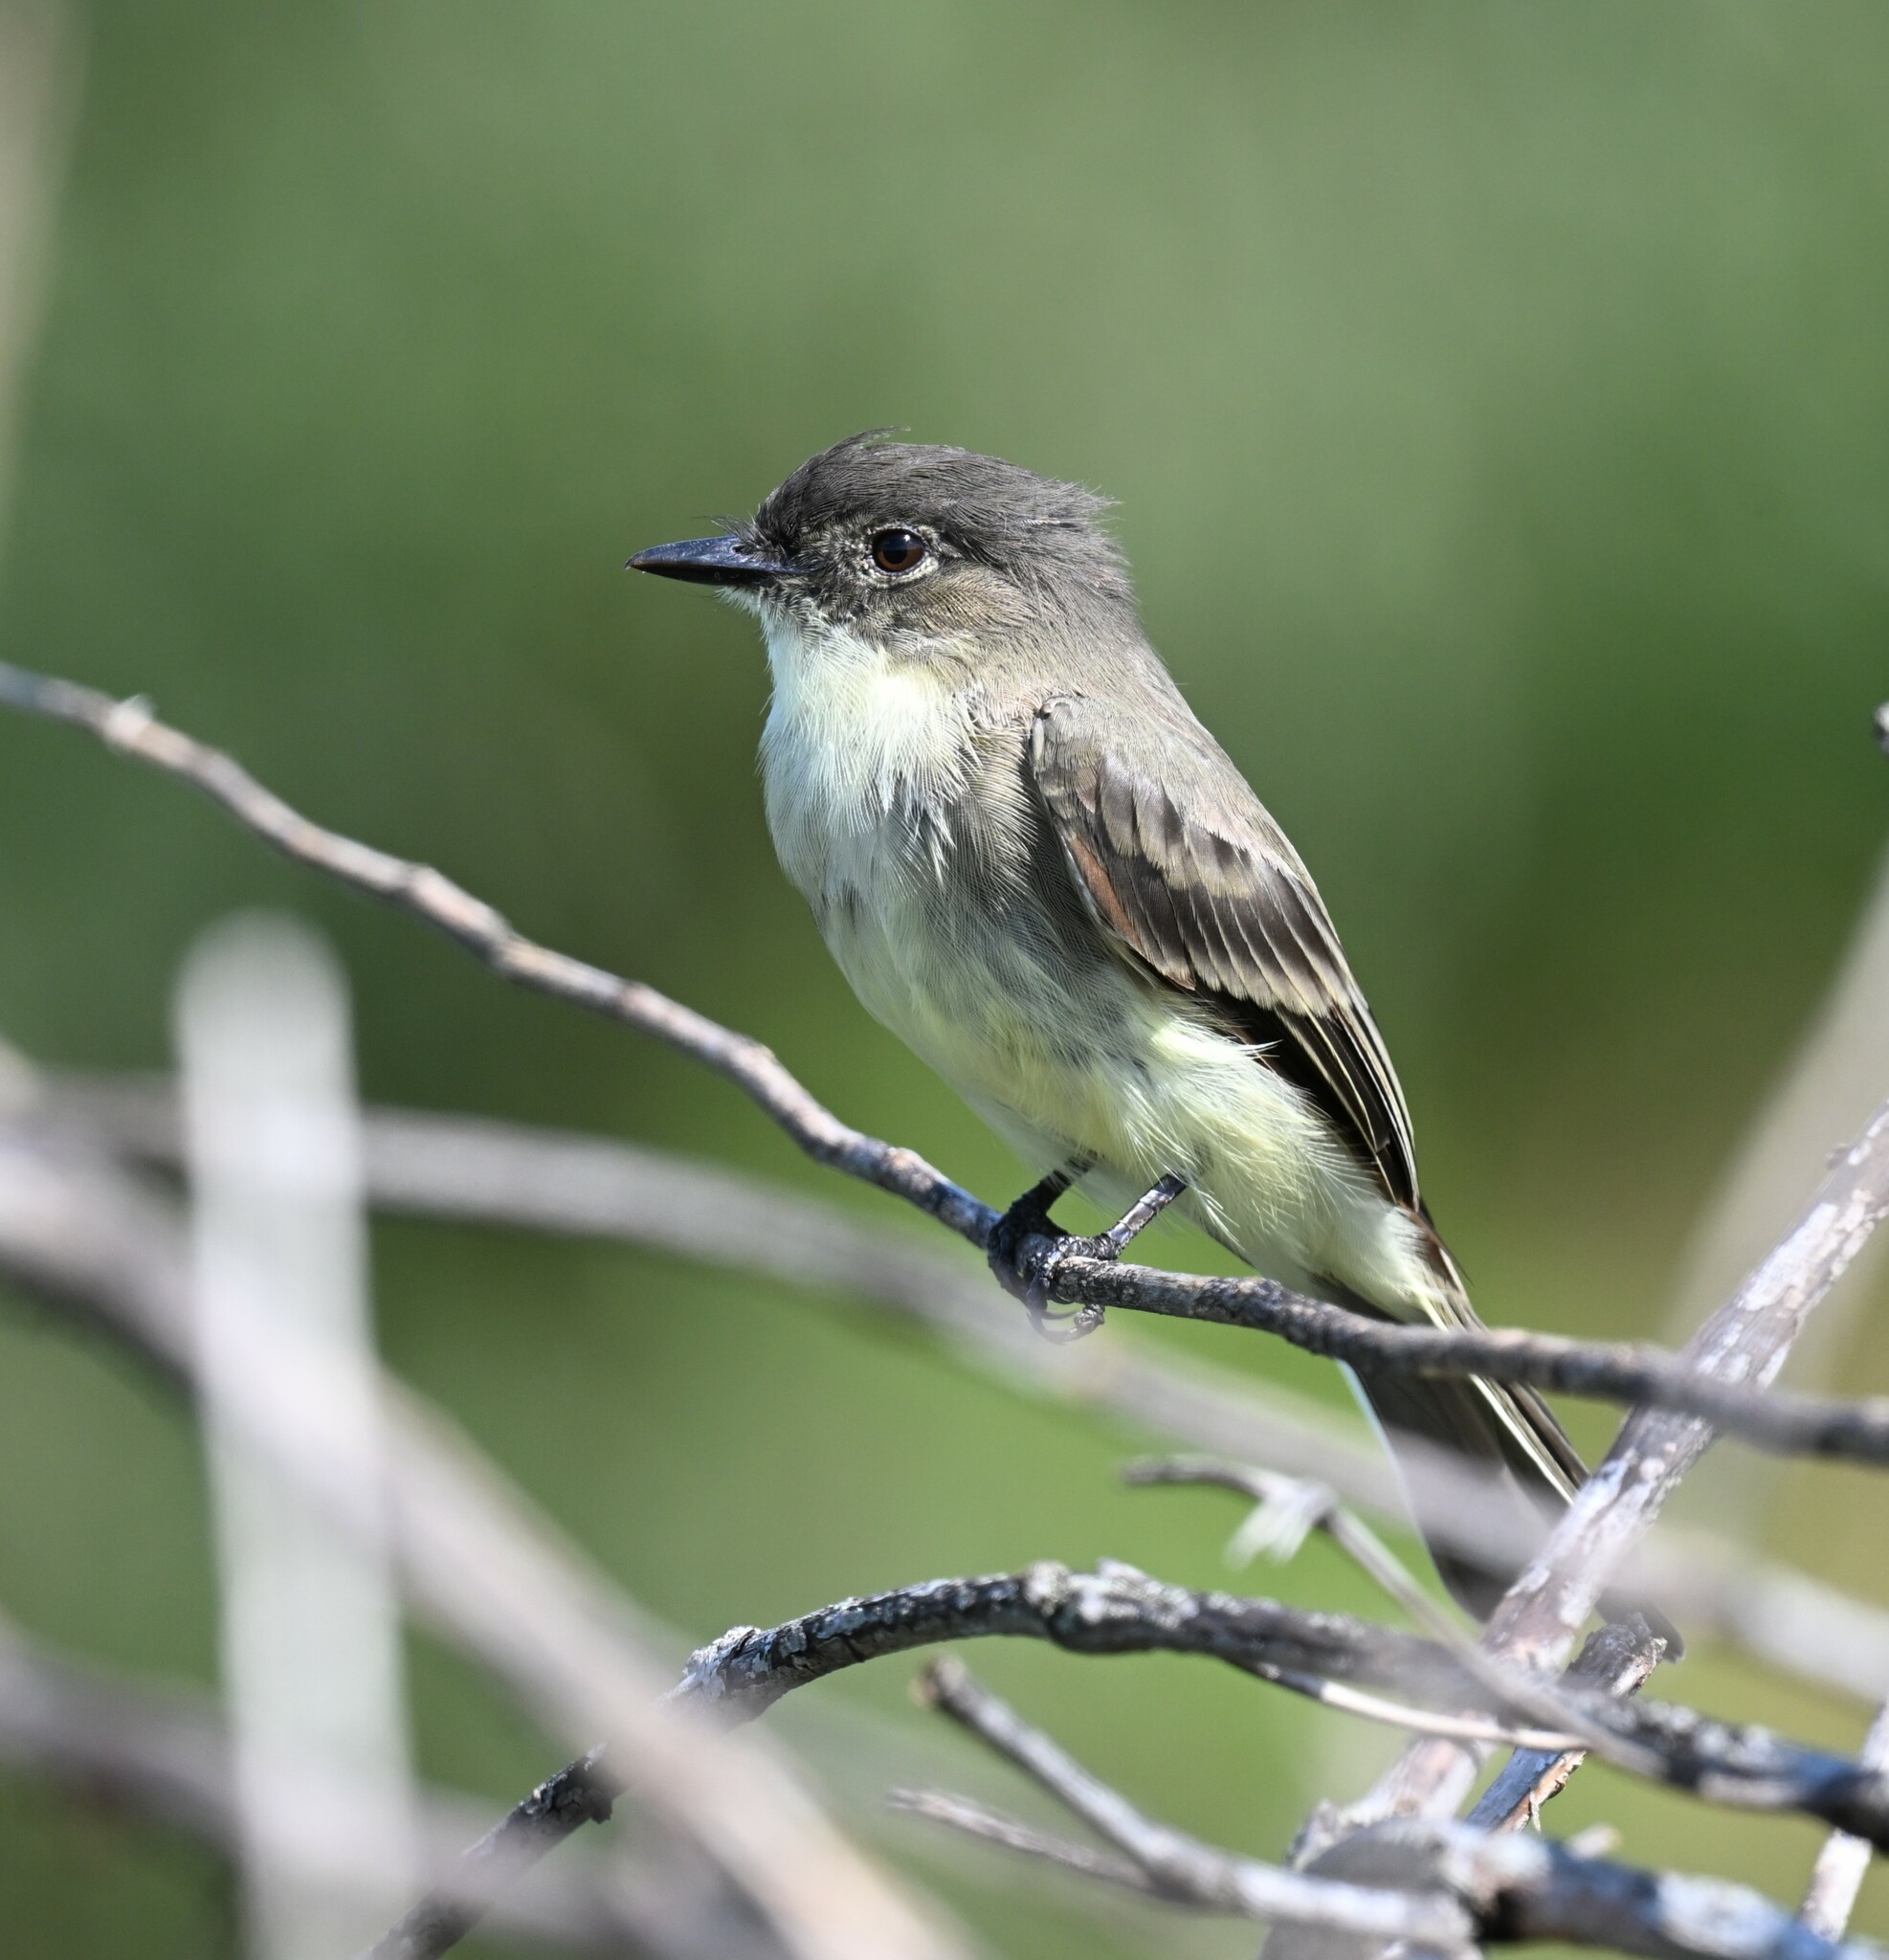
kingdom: Animalia
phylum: Chordata
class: Aves
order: Passeriformes
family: Tyrannidae
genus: Sayornis
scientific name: Sayornis phoebe
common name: Eastern phoebe
